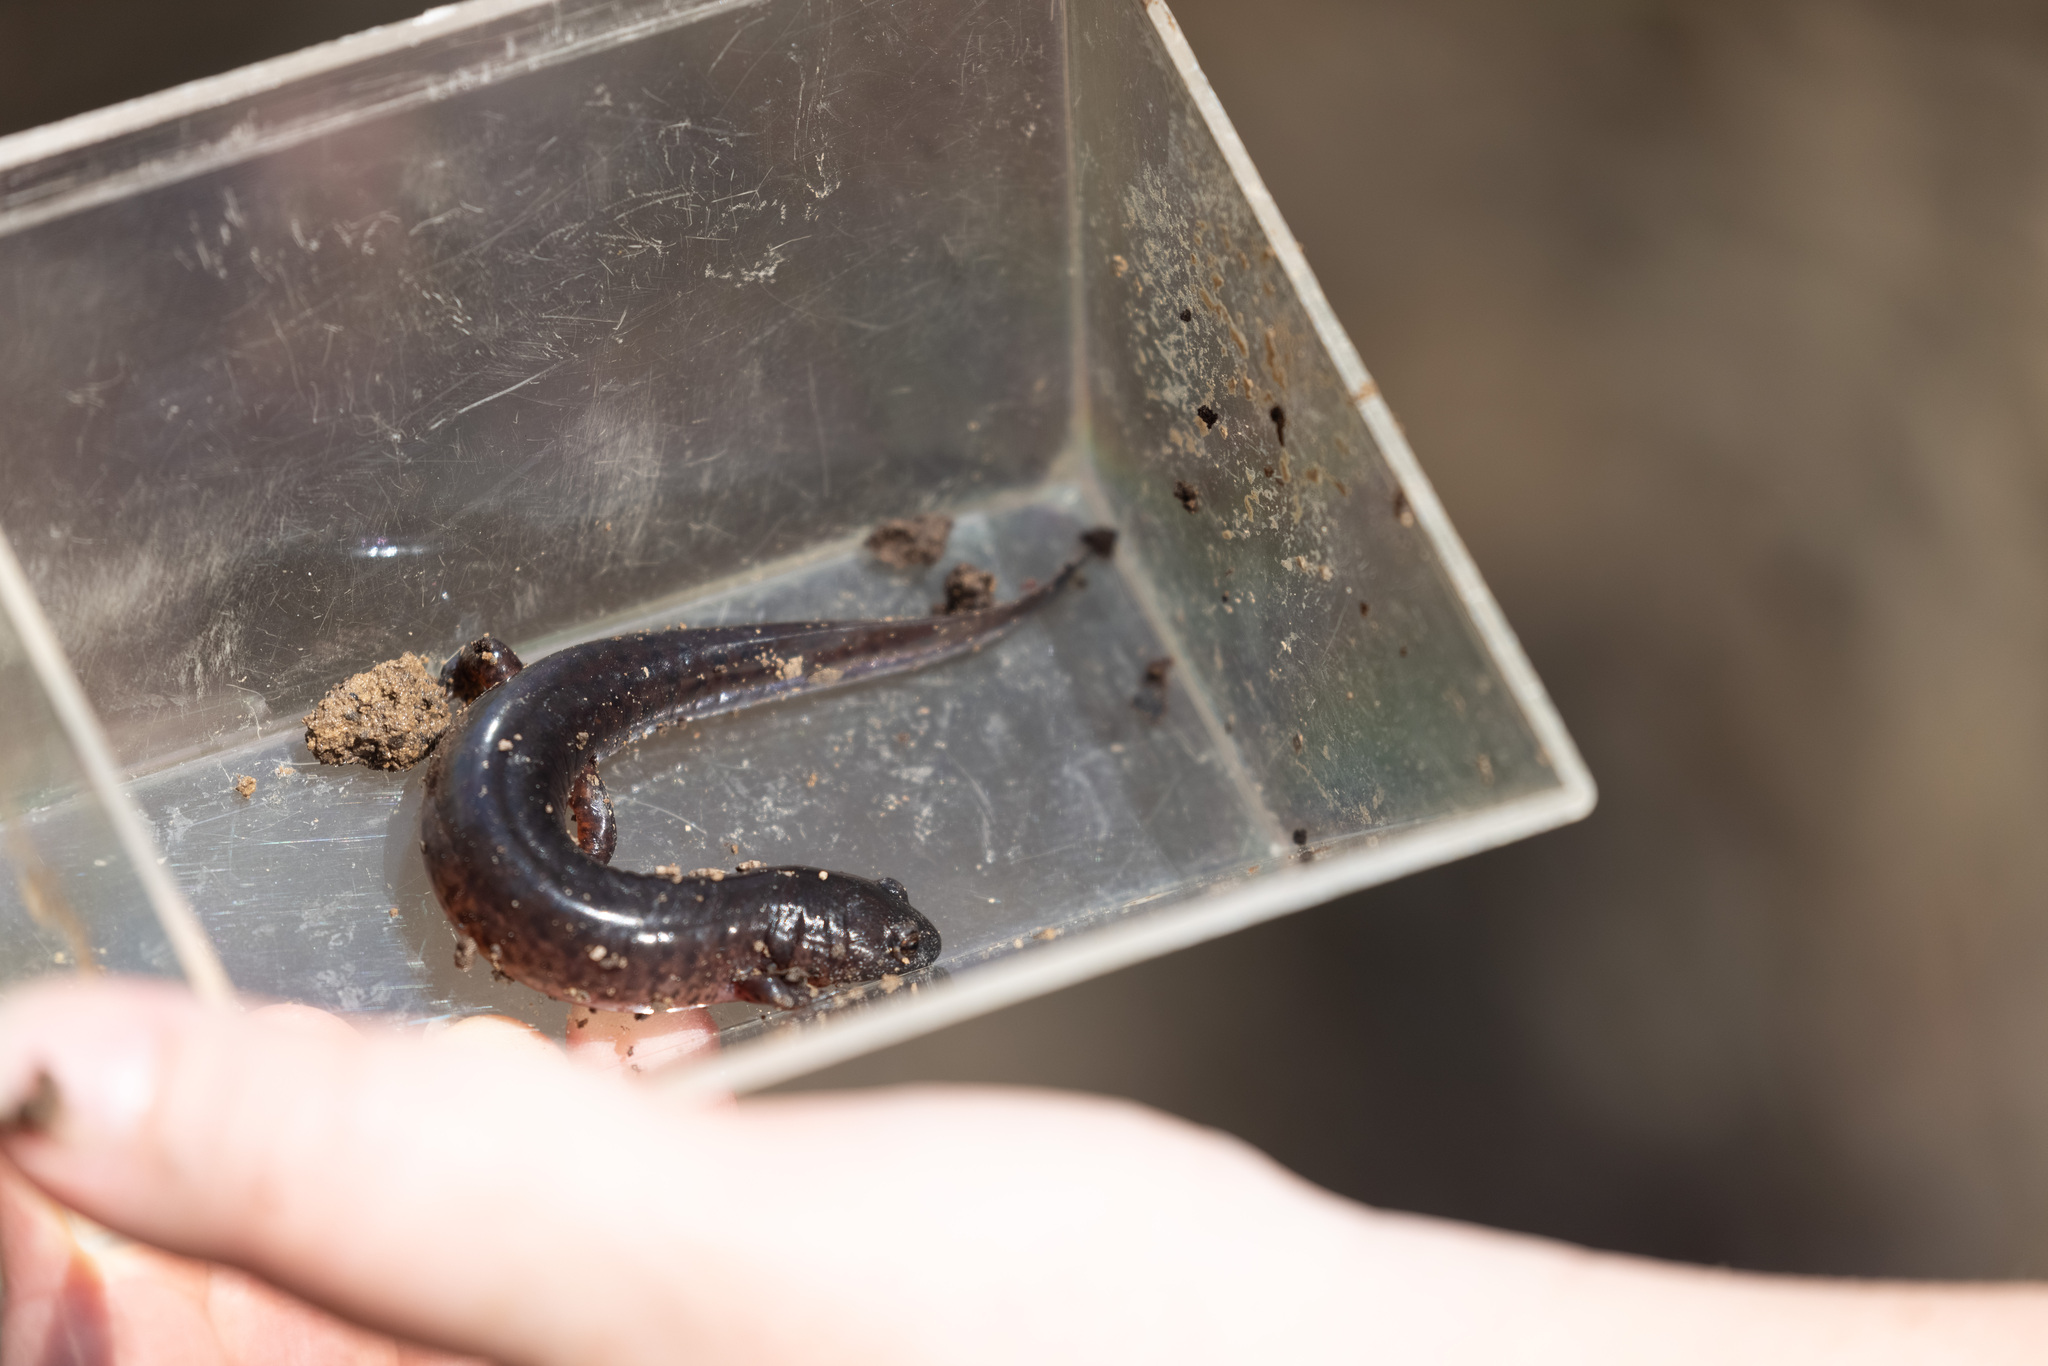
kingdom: Animalia
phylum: Chordata
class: Amphibia
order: Caudata
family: Plethodontidae
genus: Pseudotriton
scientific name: Pseudotriton ruber
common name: Red salamander
